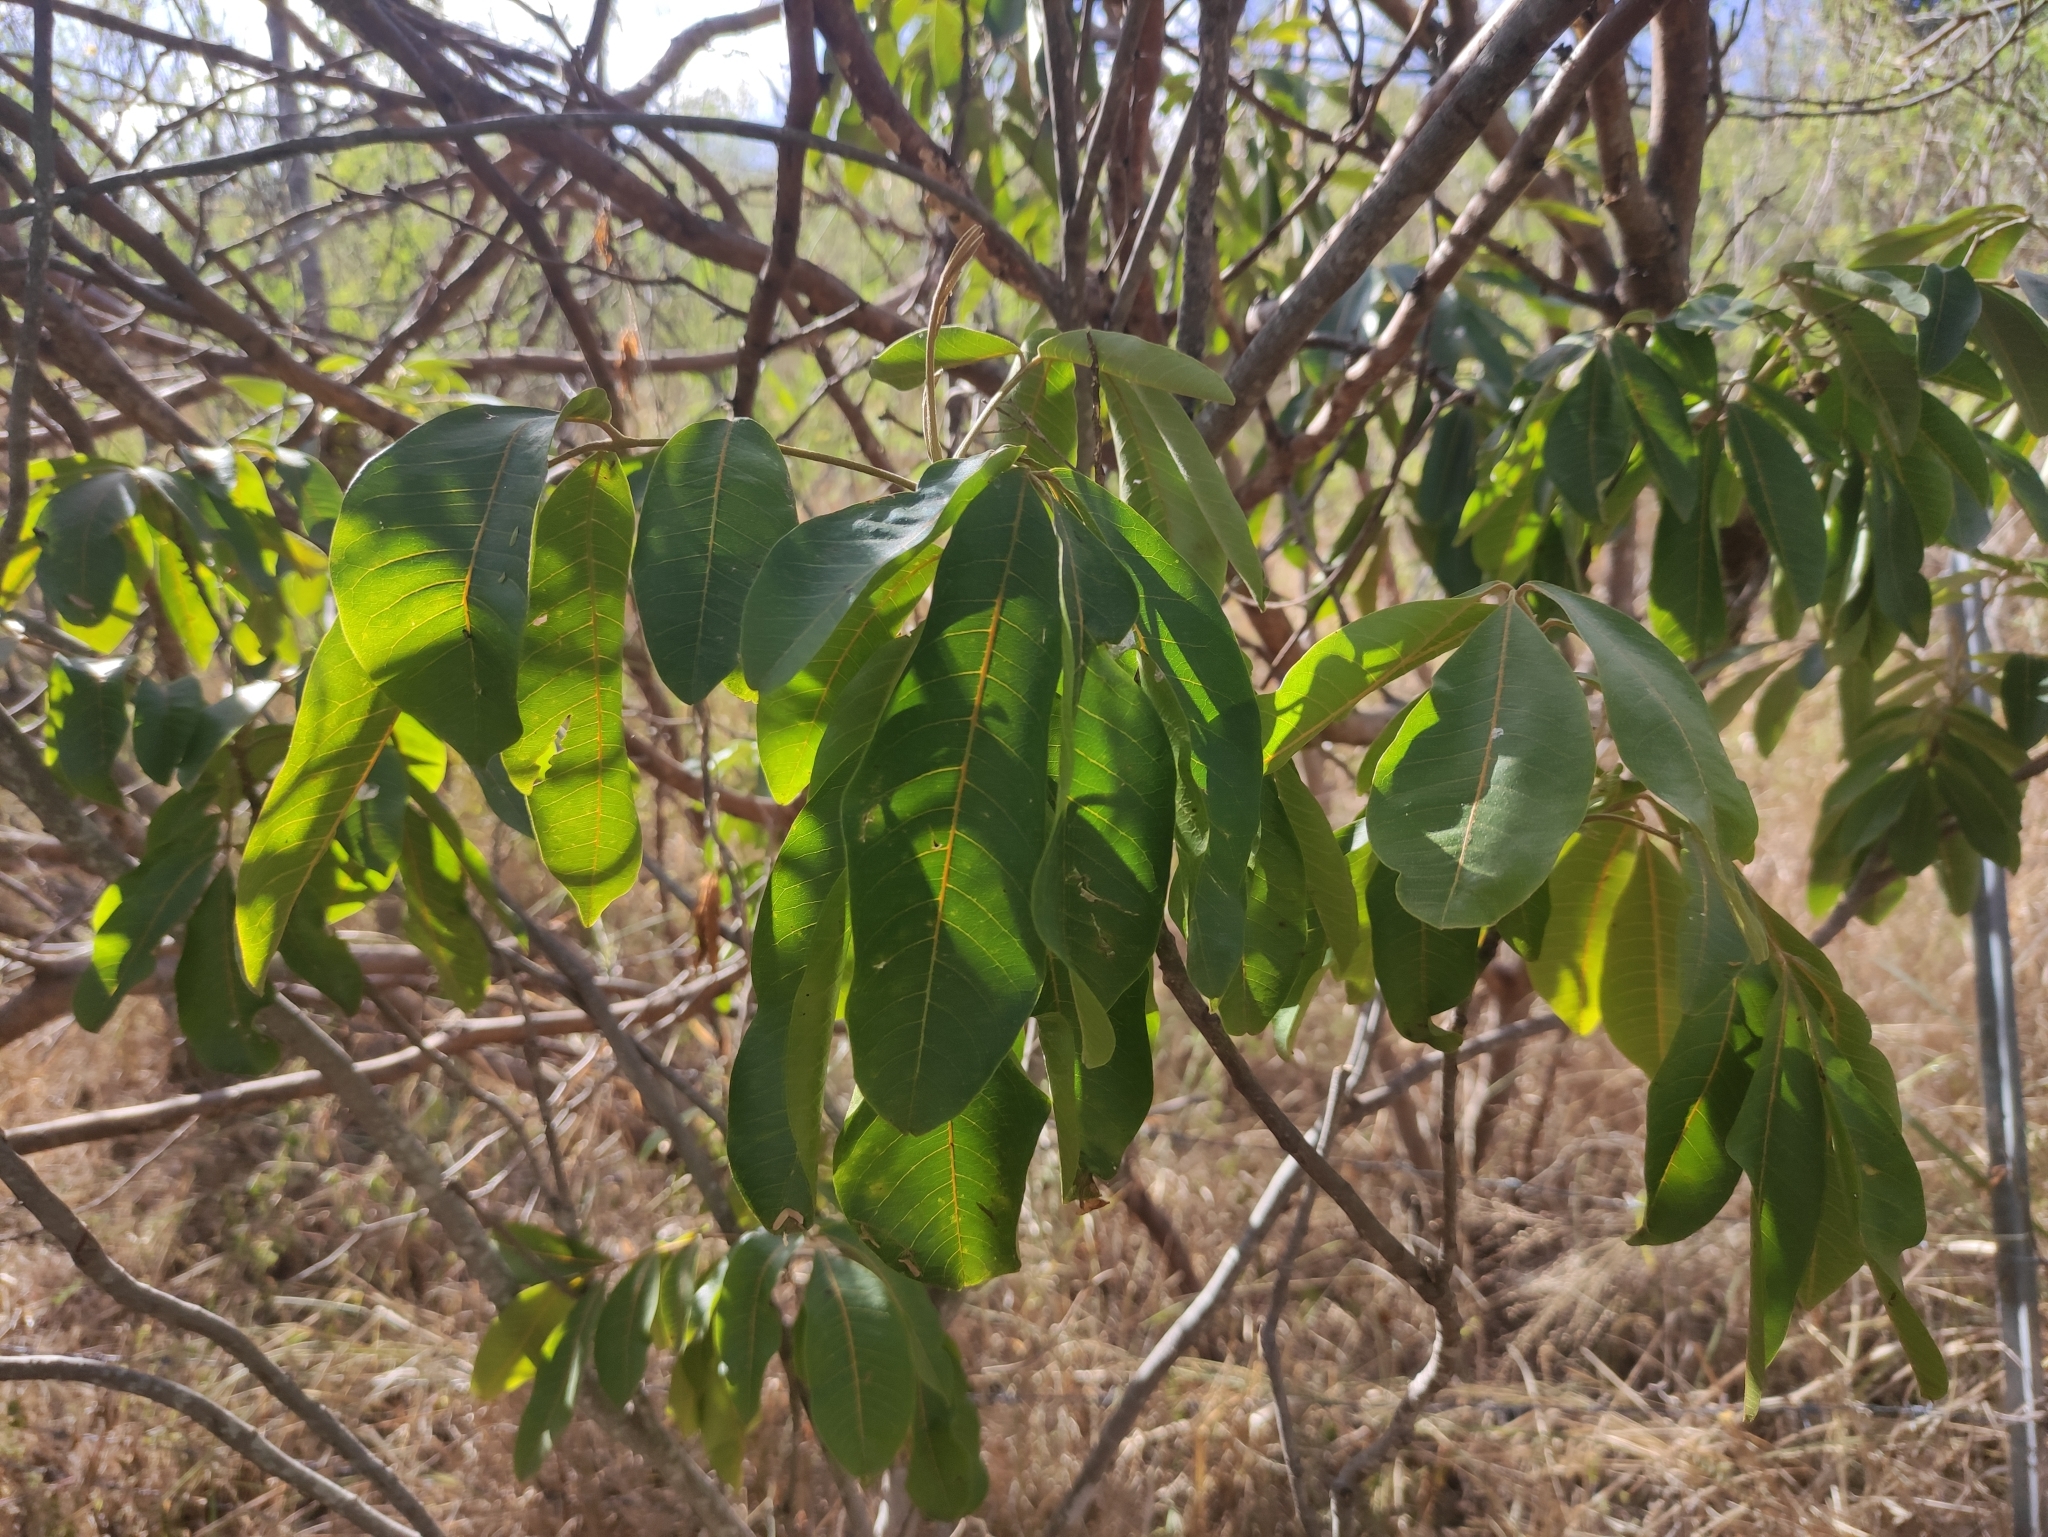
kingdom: Plantae
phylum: Tracheophyta
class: Magnoliopsida
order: Sapindales
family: Sapindaceae
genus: Cossinia
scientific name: Cossinia pinnata
